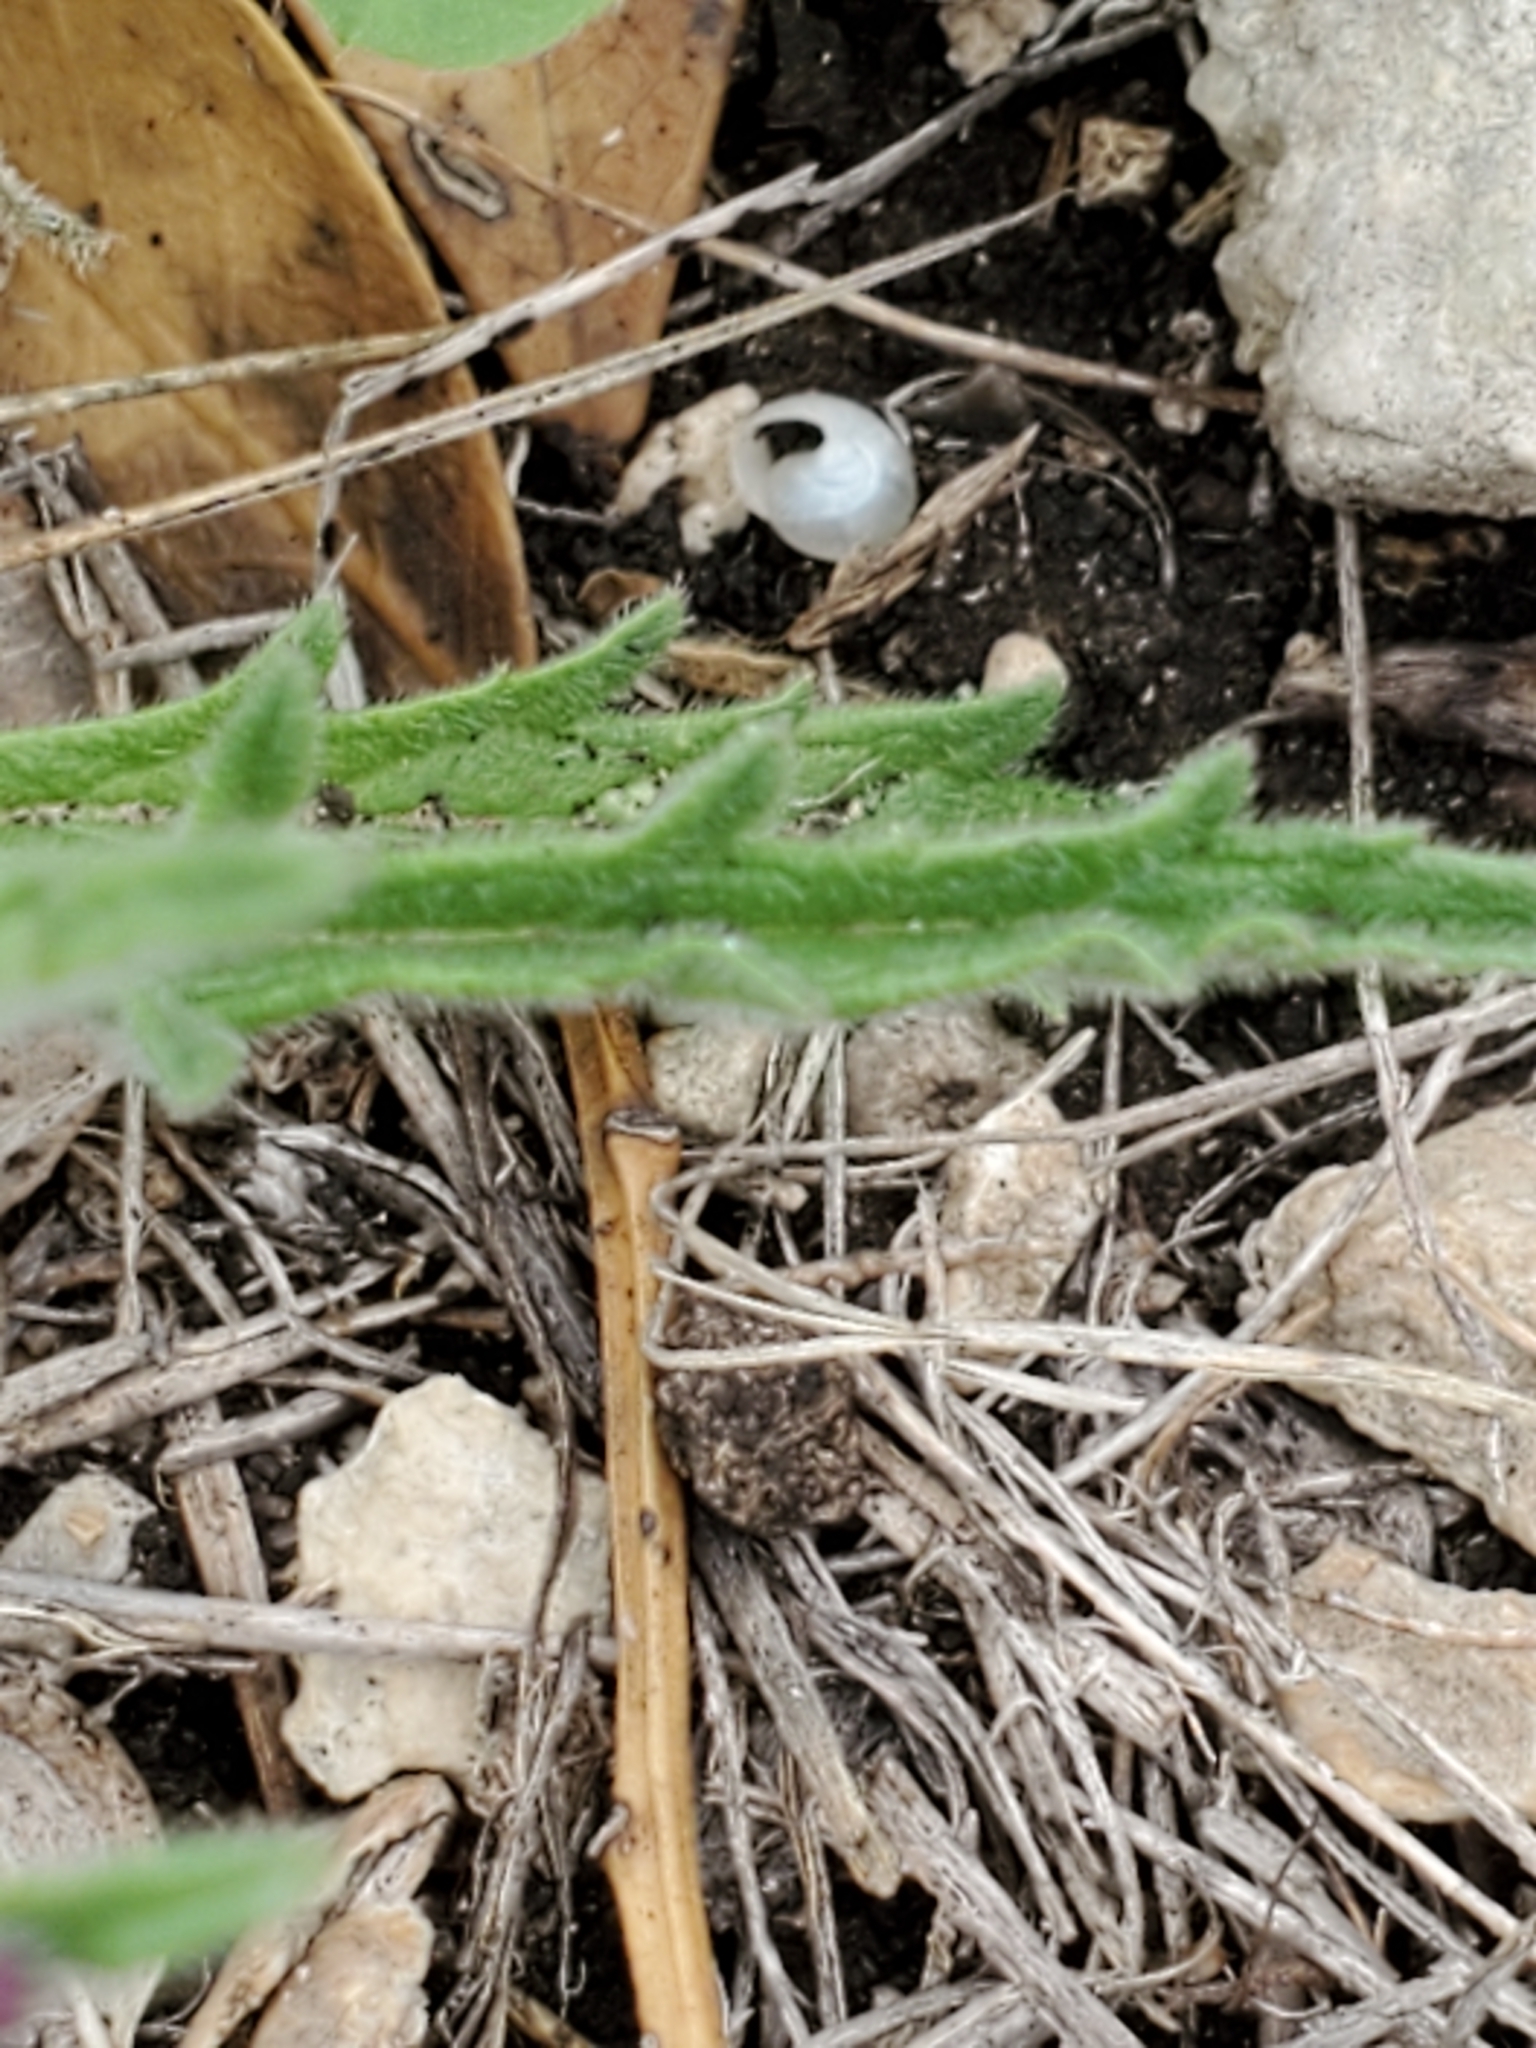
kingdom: Plantae
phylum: Tracheophyta
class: Magnoliopsida
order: Lamiales
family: Verbenaceae
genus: Verbena
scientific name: Verbena canescens
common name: Gray vervain
